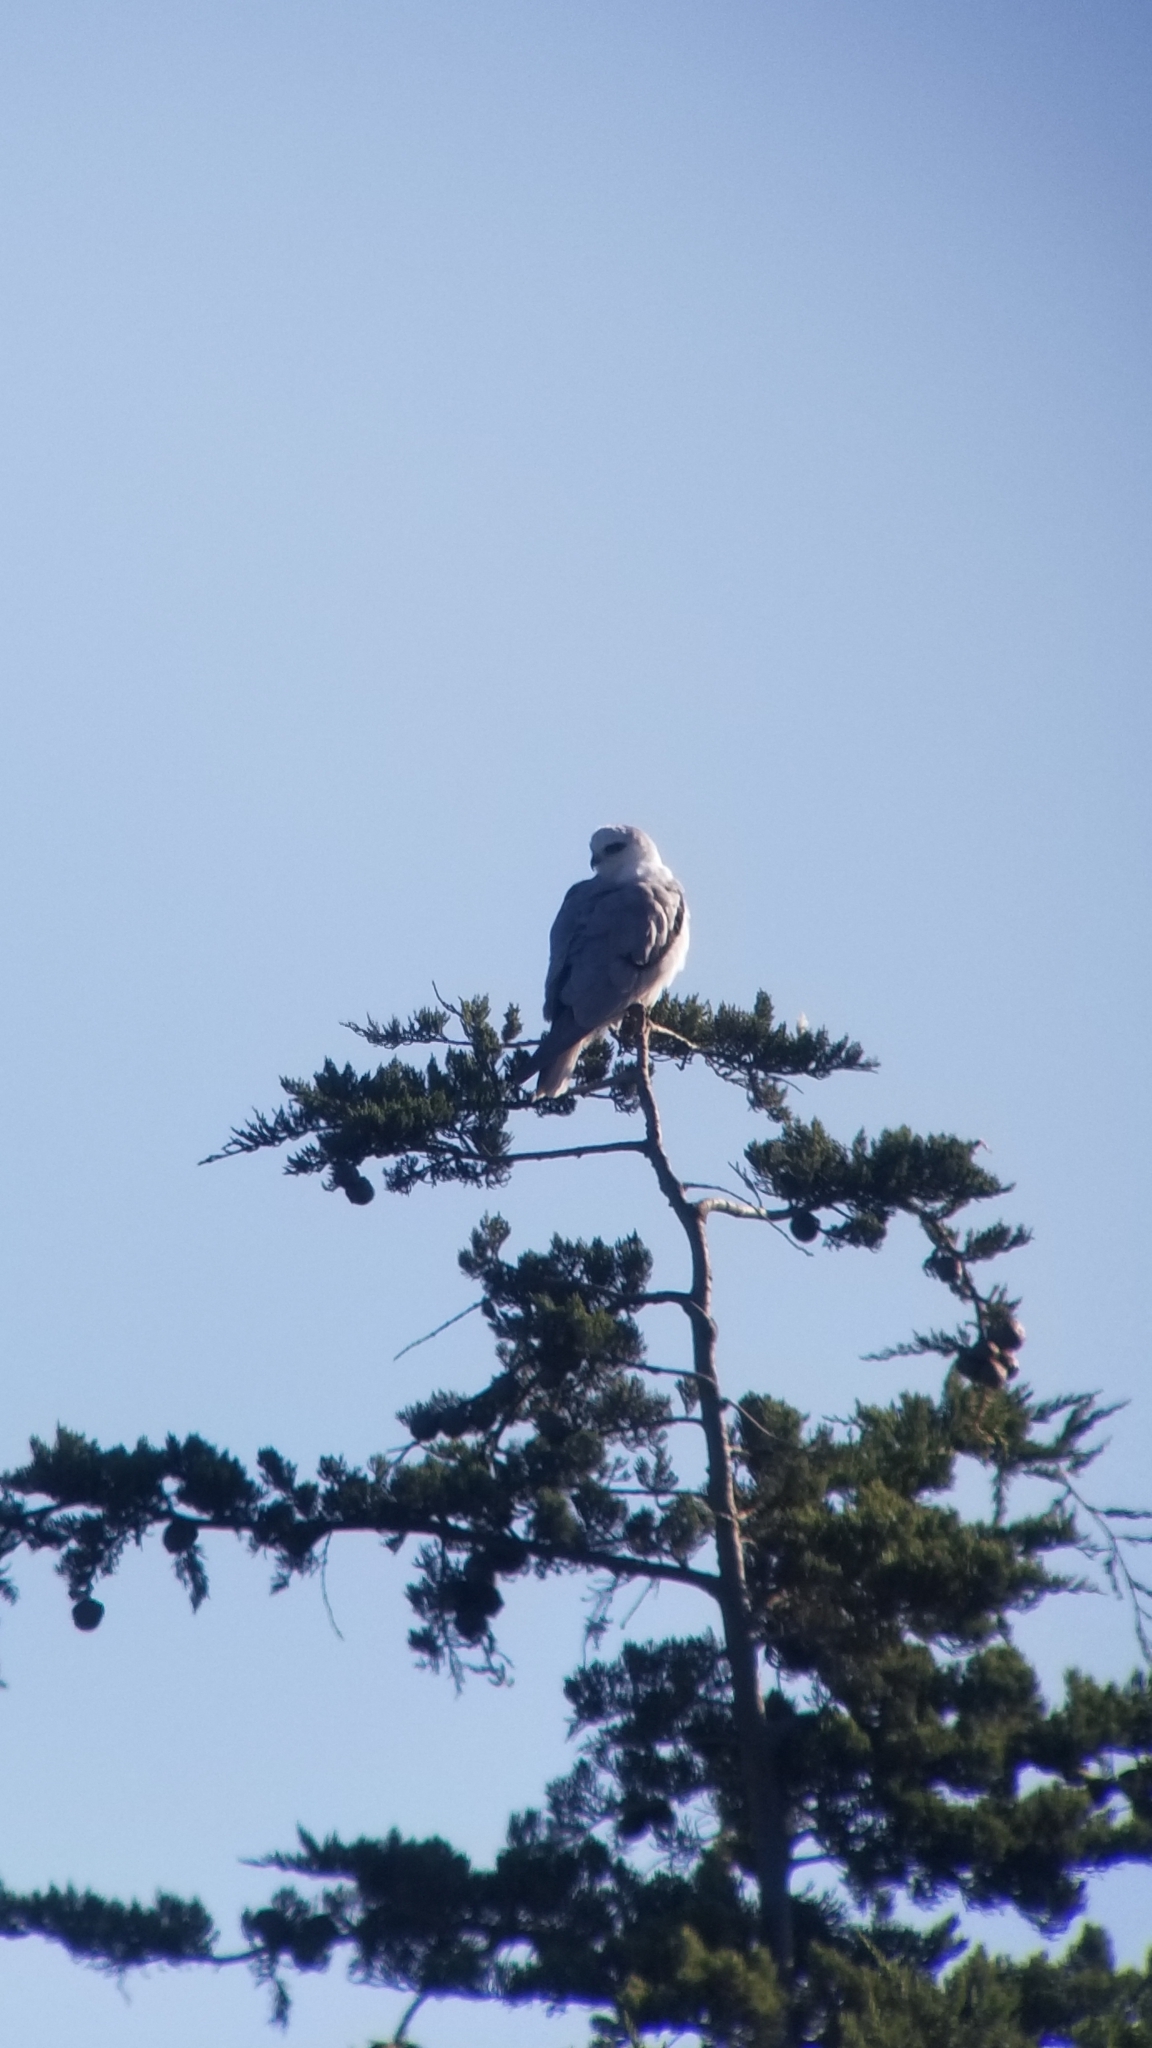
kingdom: Animalia
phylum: Chordata
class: Aves
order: Accipitriformes
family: Accipitridae
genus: Elanus
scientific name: Elanus leucurus
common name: White-tailed kite
